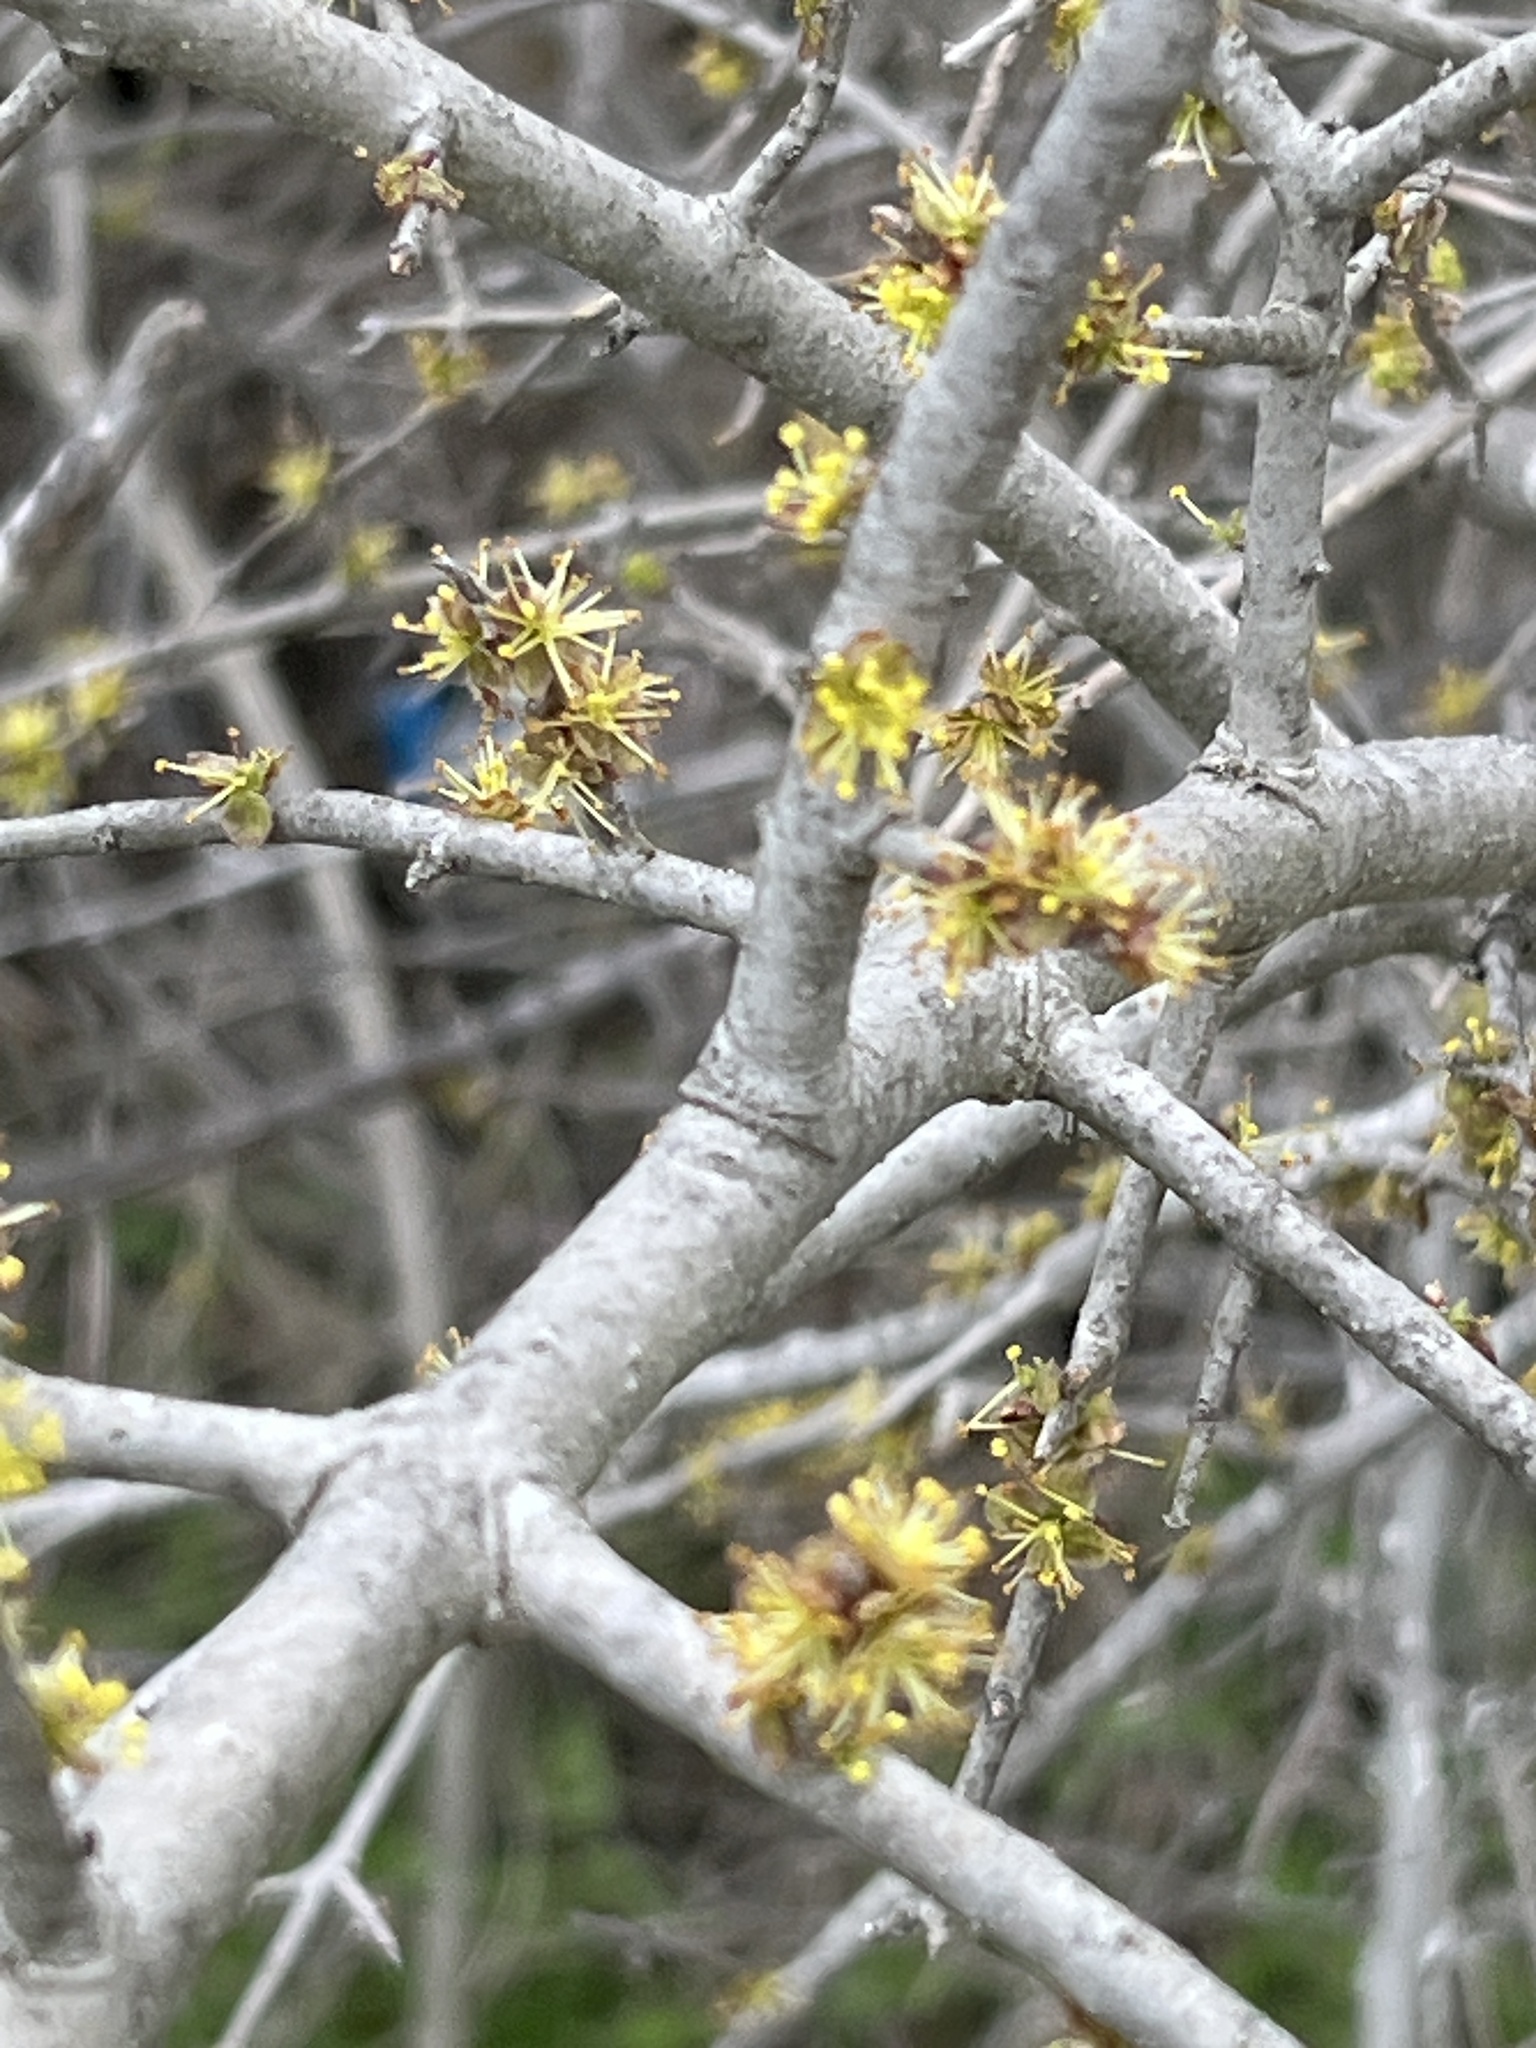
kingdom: Plantae
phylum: Tracheophyta
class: Magnoliopsida
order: Lamiales
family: Oleaceae
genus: Forestiera
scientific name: Forestiera pubescens
